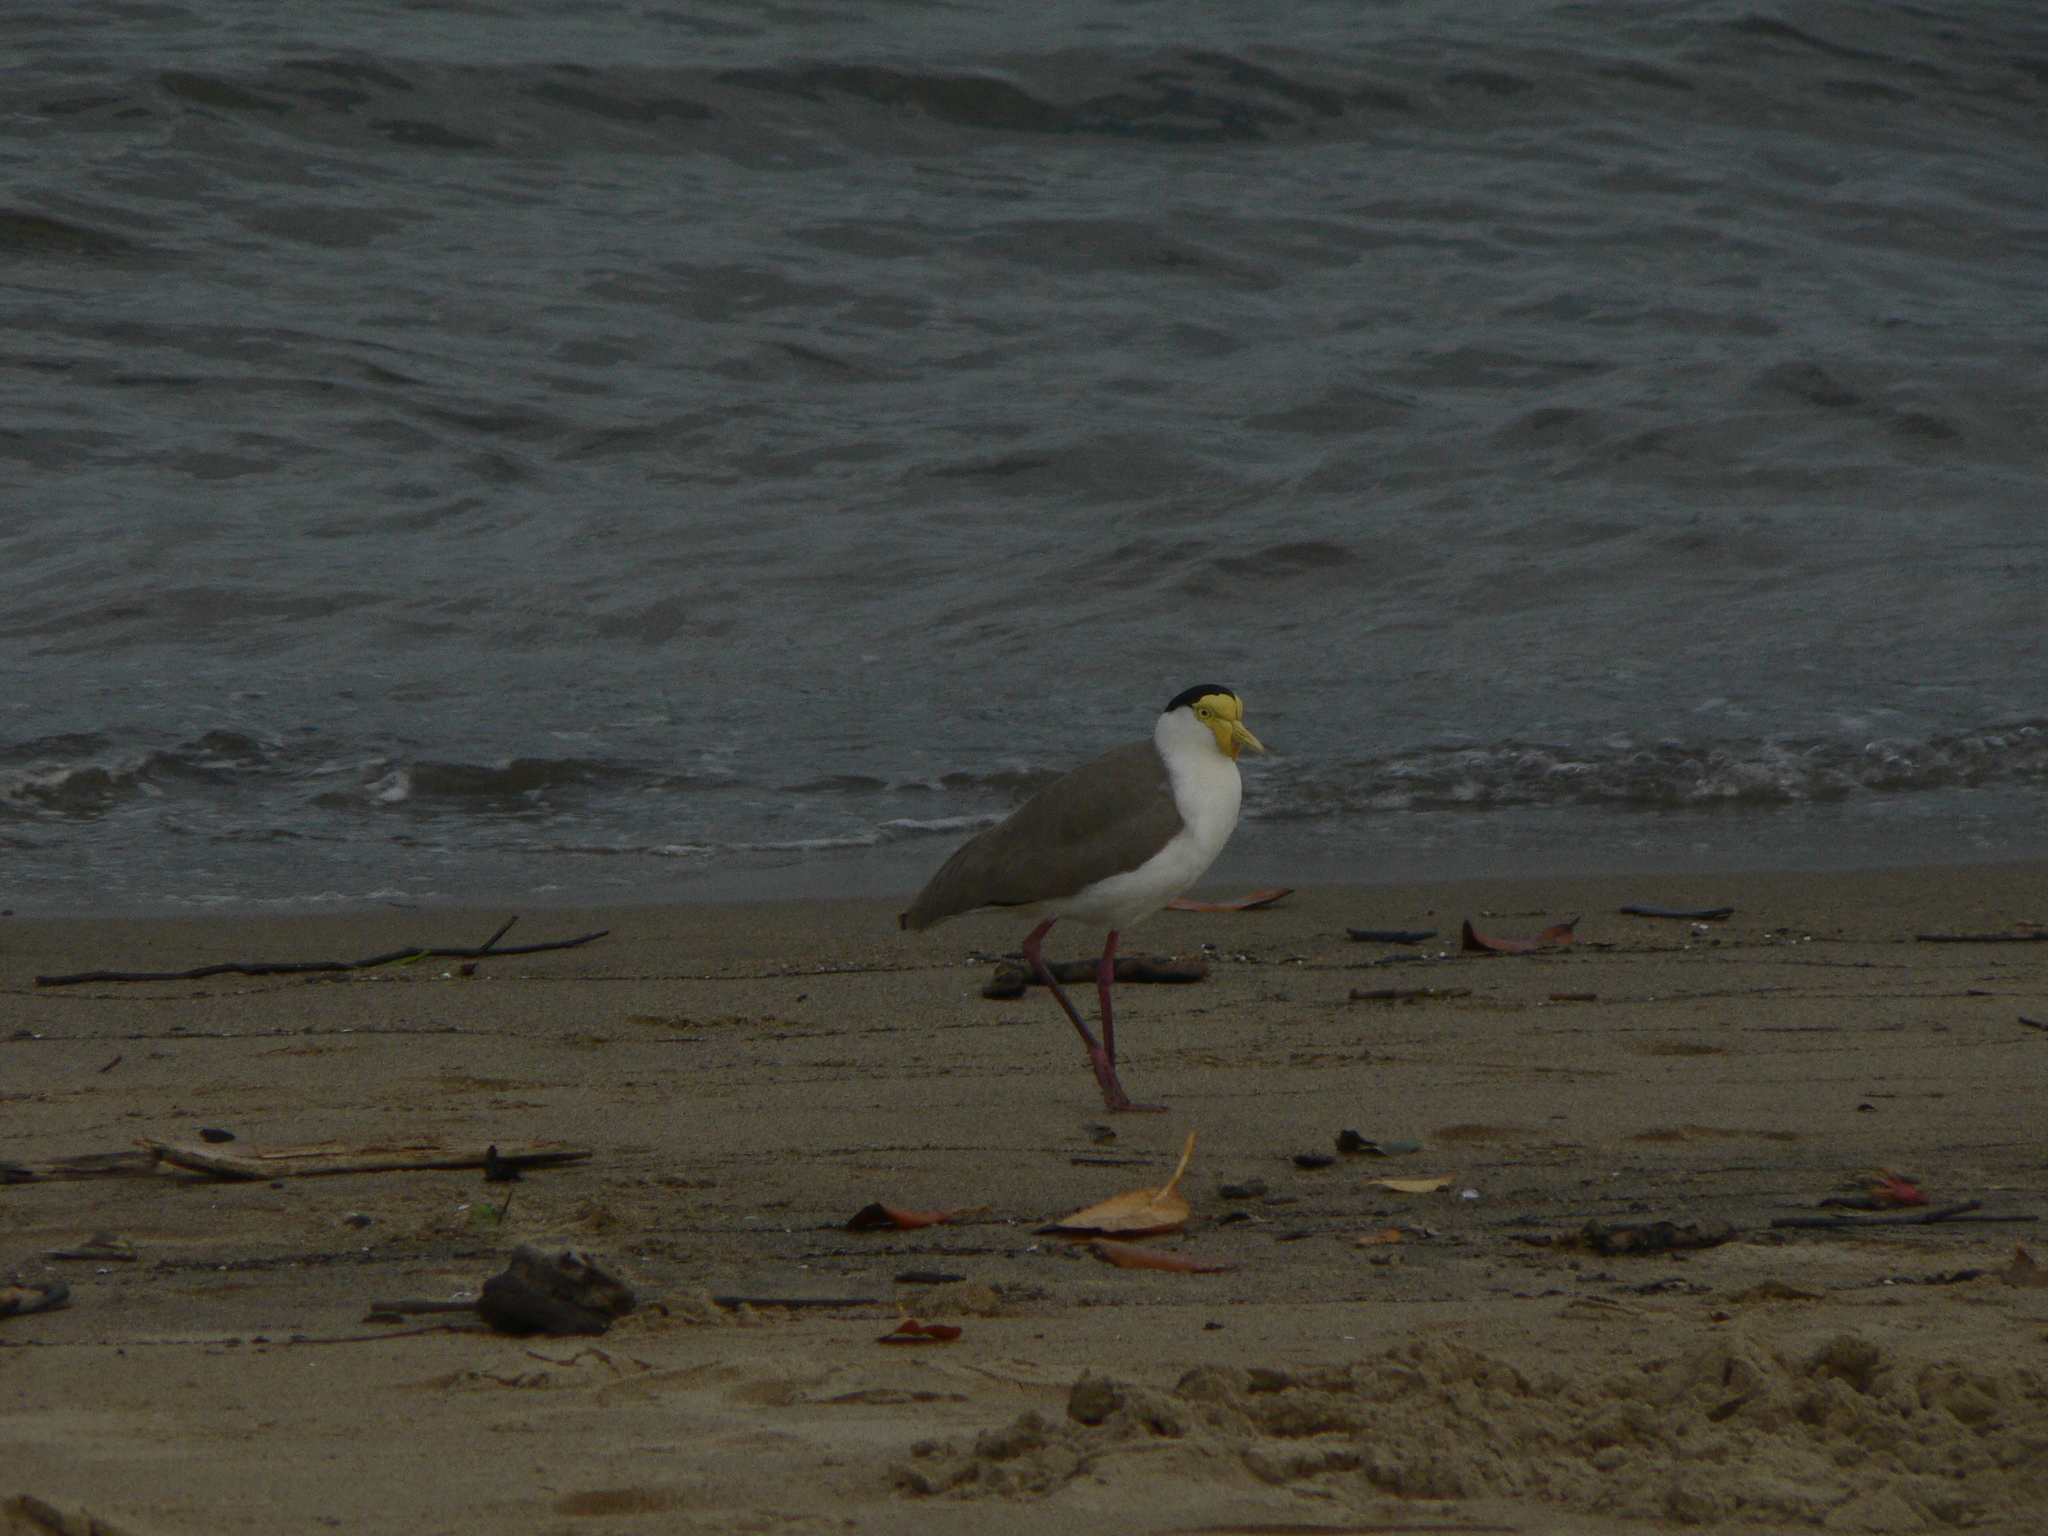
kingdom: Animalia
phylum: Chordata
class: Aves
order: Charadriiformes
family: Charadriidae
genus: Vanellus
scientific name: Vanellus miles
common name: Masked lapwing
